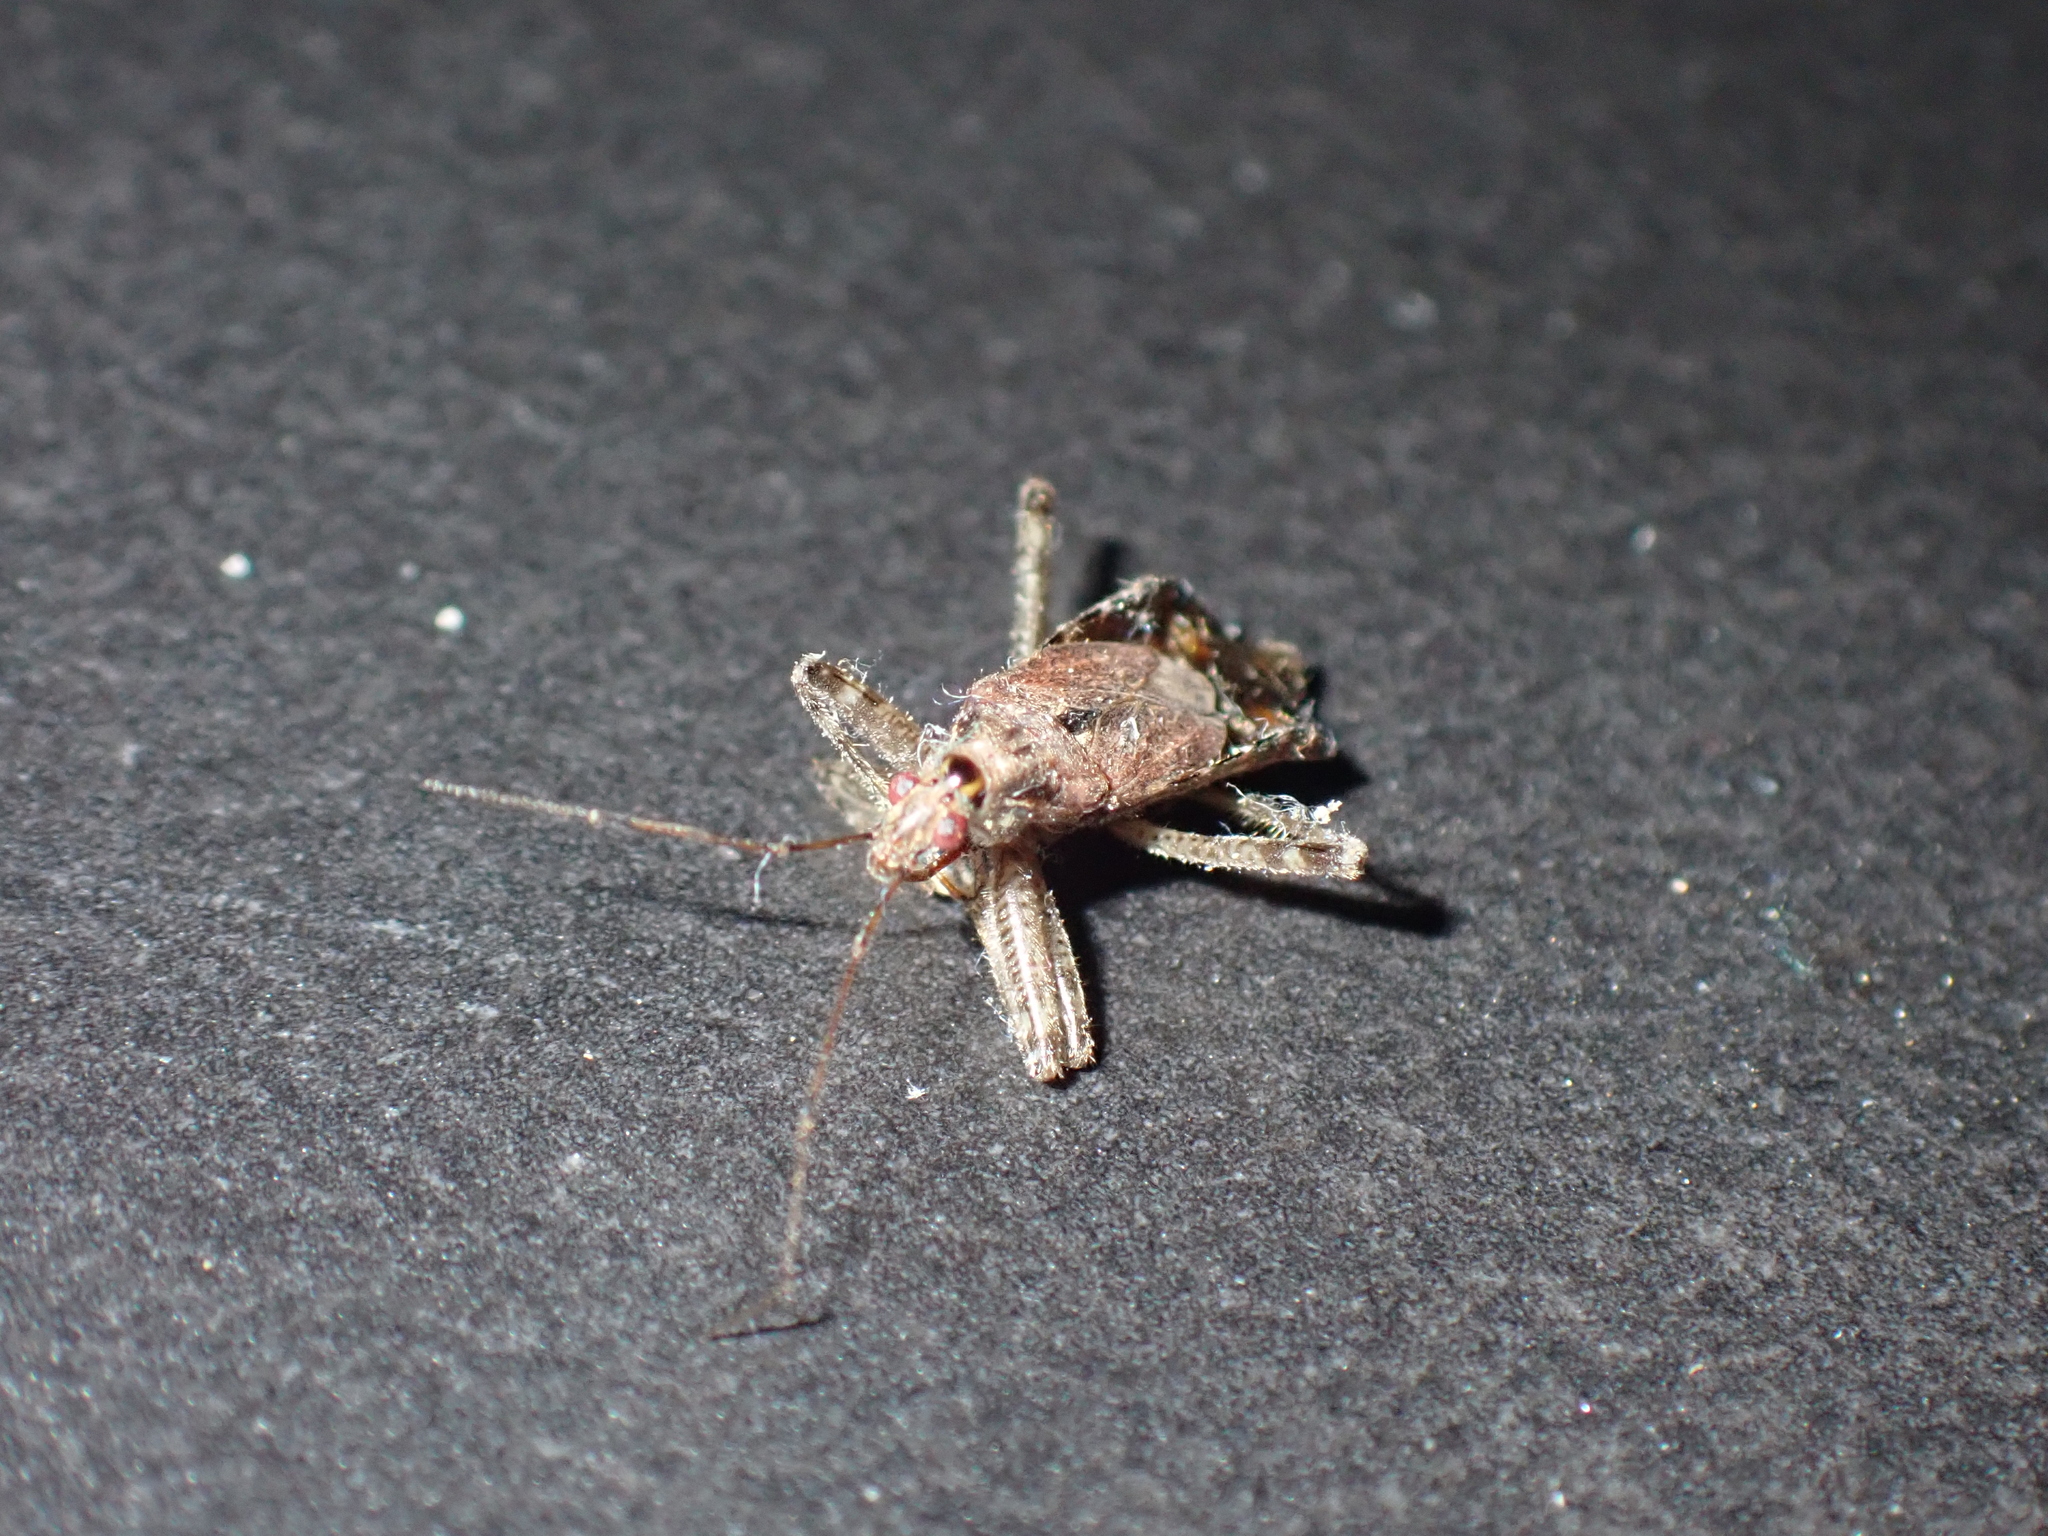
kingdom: Animalia
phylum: Arthropoda
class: Insecta
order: Hemiptera
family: Nabidae
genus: Himacerus
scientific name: Himacerus apterus
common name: Tree damsel bug
